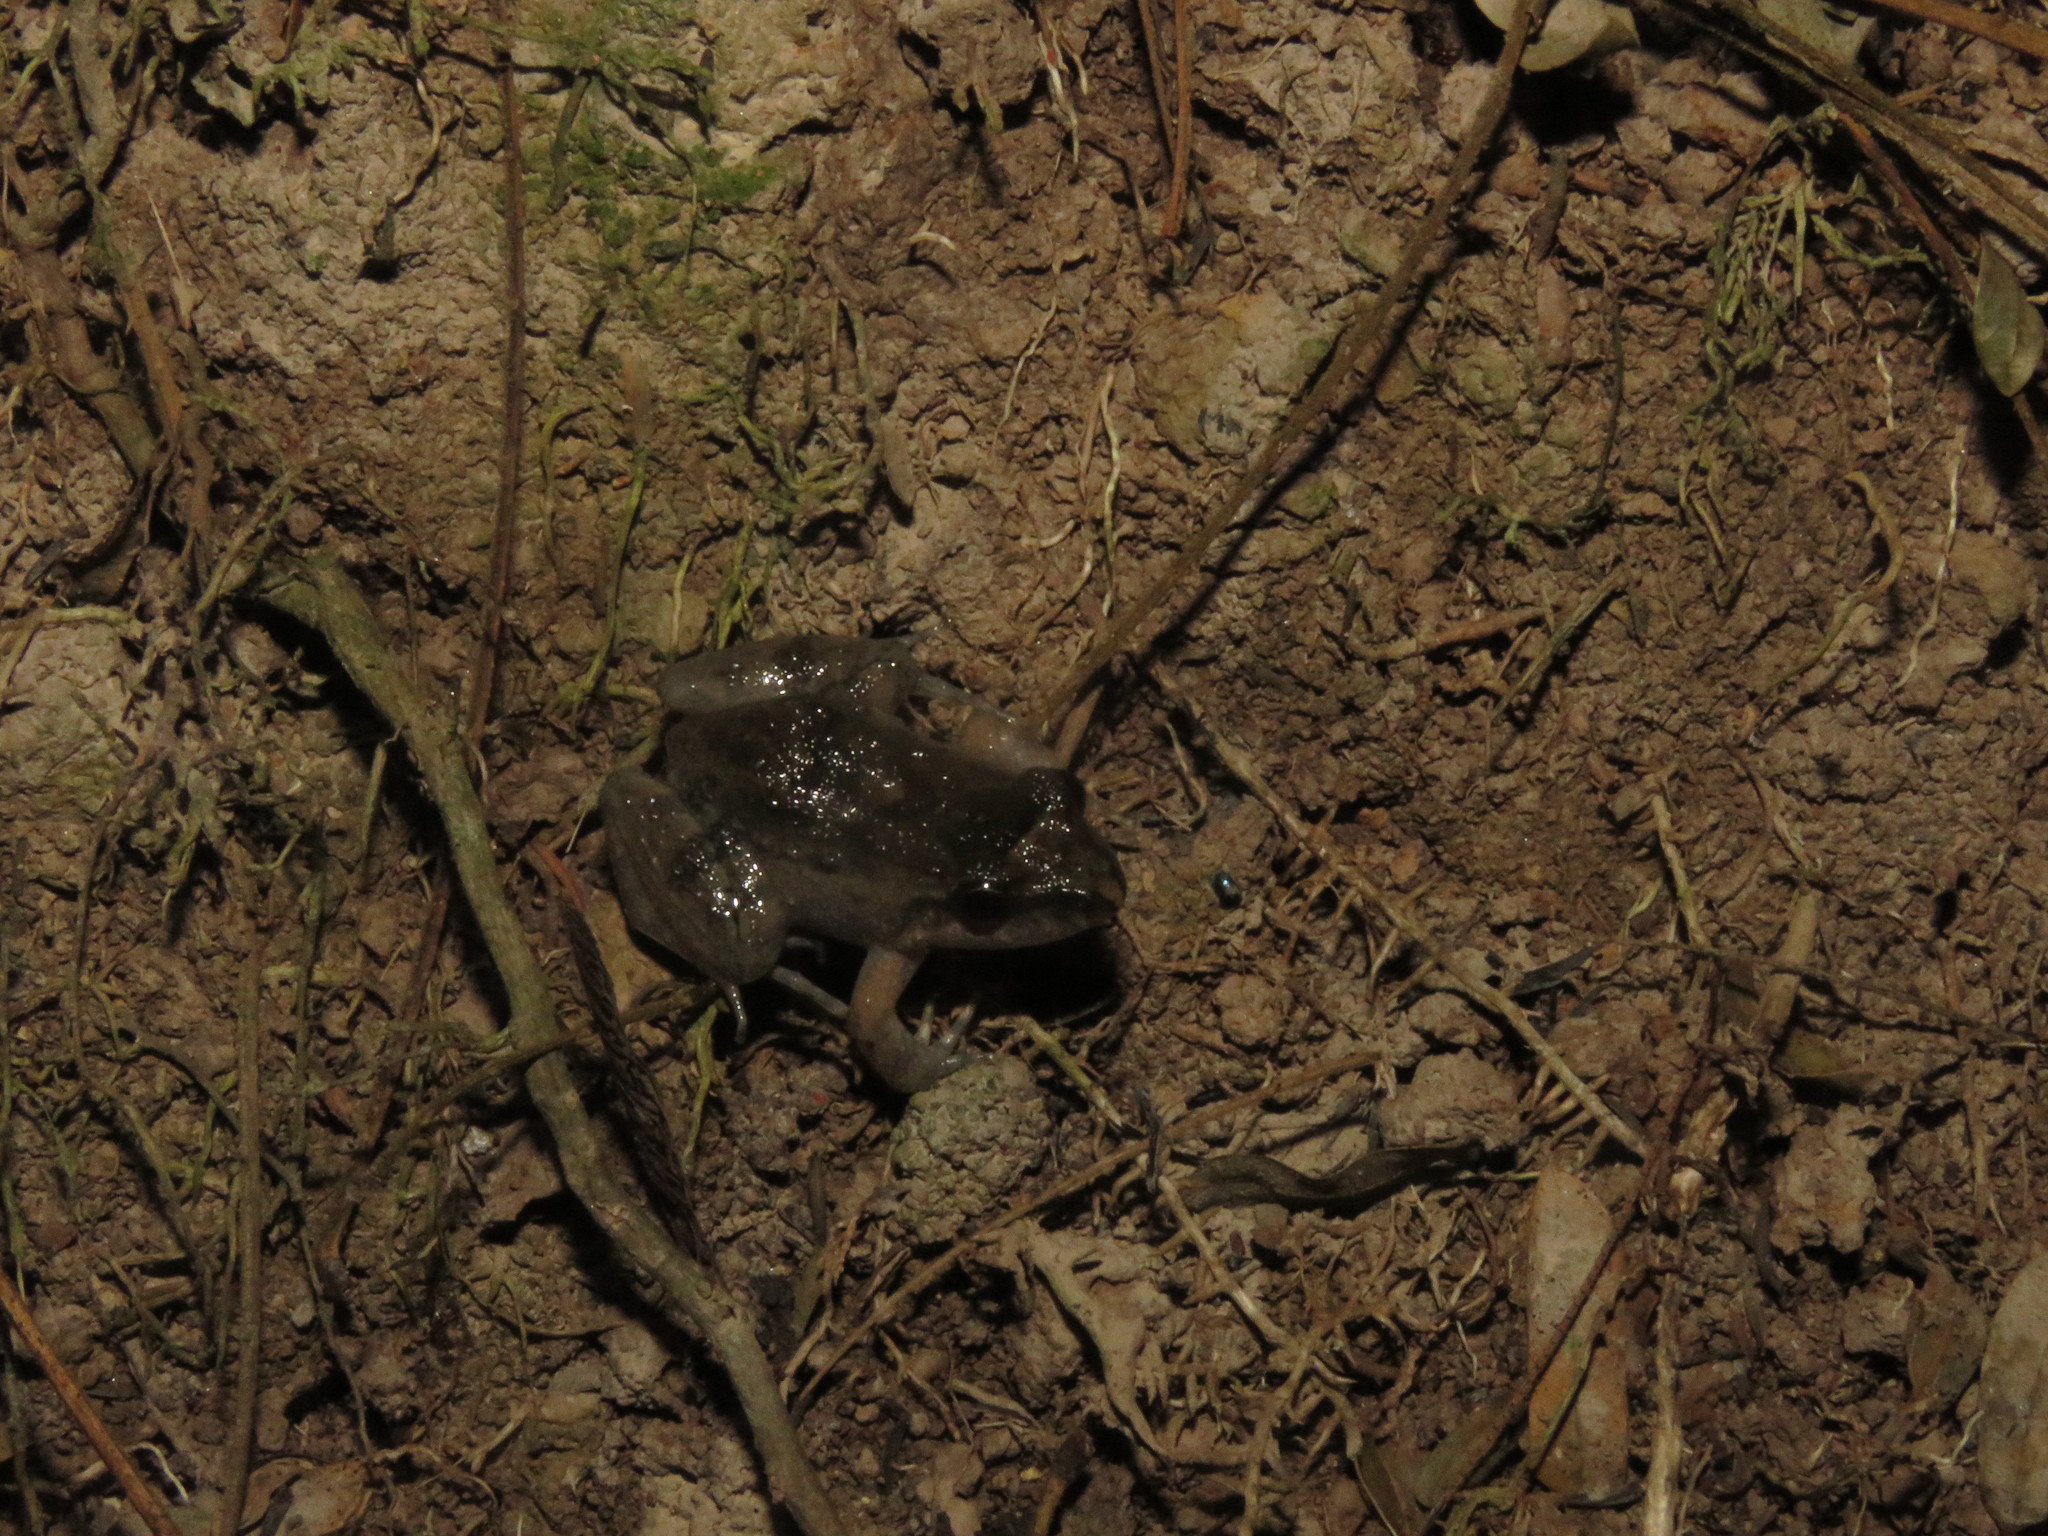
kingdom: Animalia
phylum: Chordata
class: Amphibia
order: Anura
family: Leptodactylidae
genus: Leptodactylus
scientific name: Leptodactylus petersii
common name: Peters' thin-toed frog
